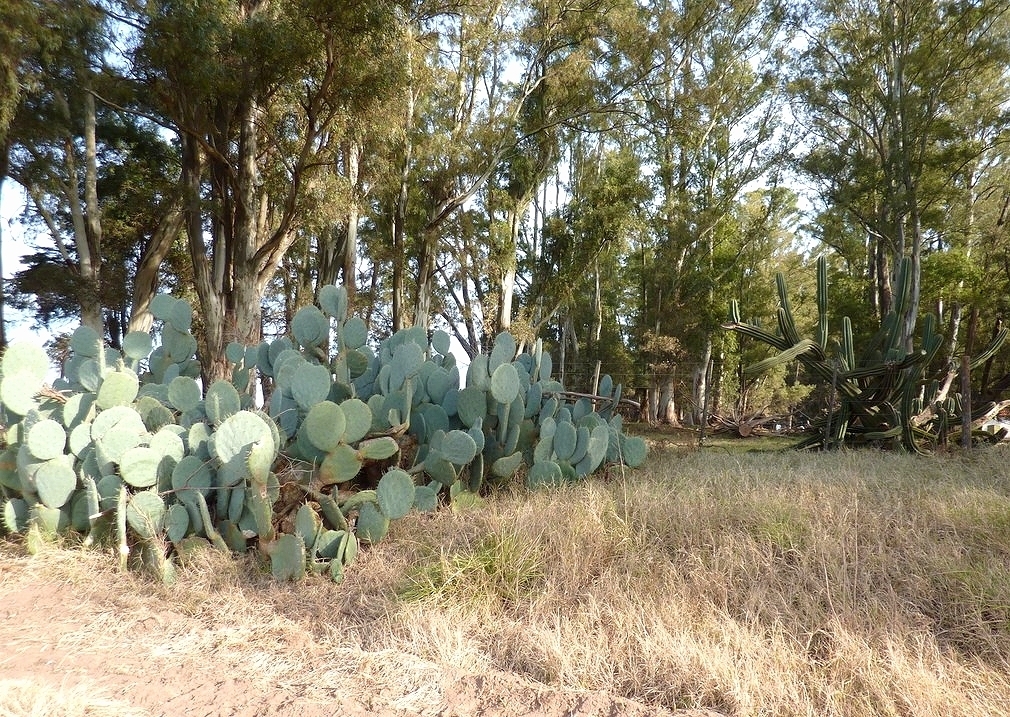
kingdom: Plantae
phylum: Tracheophyta
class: Magnoliopsida
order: Caryophyllales
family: Cactaceae
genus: Opuntia
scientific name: Opuntia ficus-indica
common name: Barbary fig
